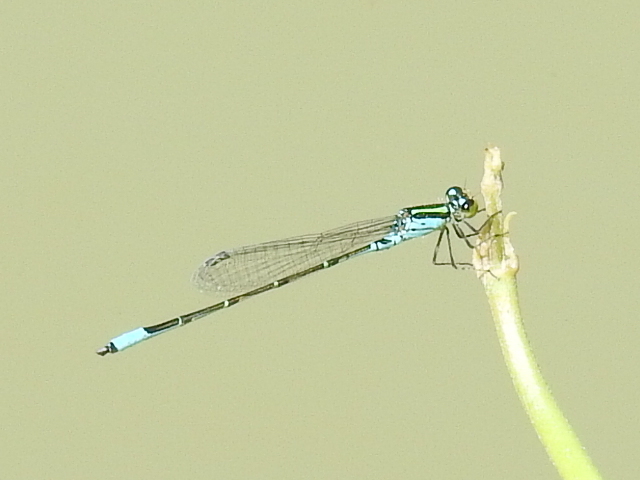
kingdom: Animalia
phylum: Arthropoda
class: Insecta
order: Odonata
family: Coenagrionidae
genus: Neoerythromma
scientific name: Neoerythromma cultellatum
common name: Caribbean yellowface
